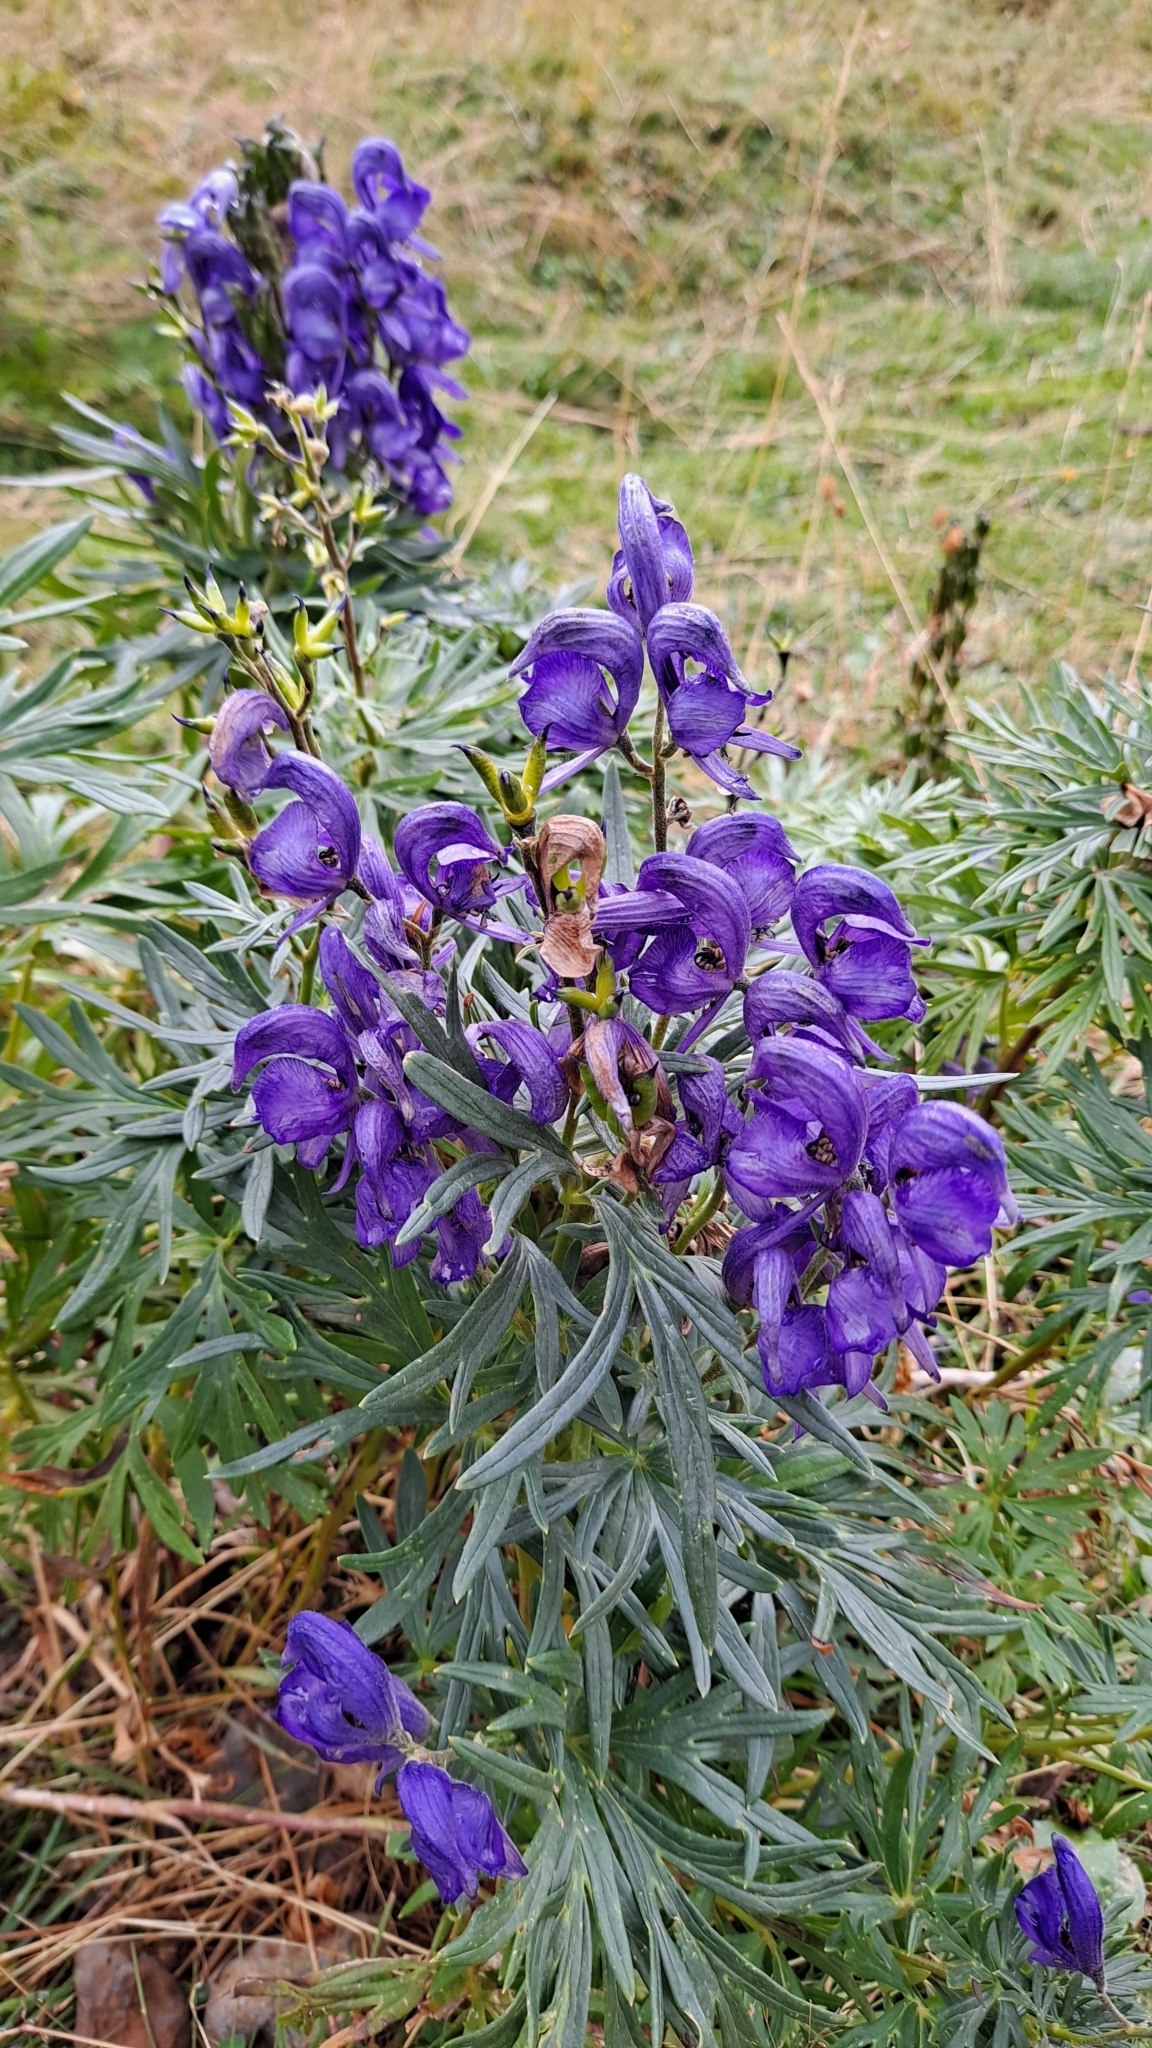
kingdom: Plantae
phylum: Tracheophyta
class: Magnoliopsida
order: Ranunculales
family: Ranunculaceae
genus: Aconitum
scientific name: Aconitum napellus
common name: Garden monkshood
